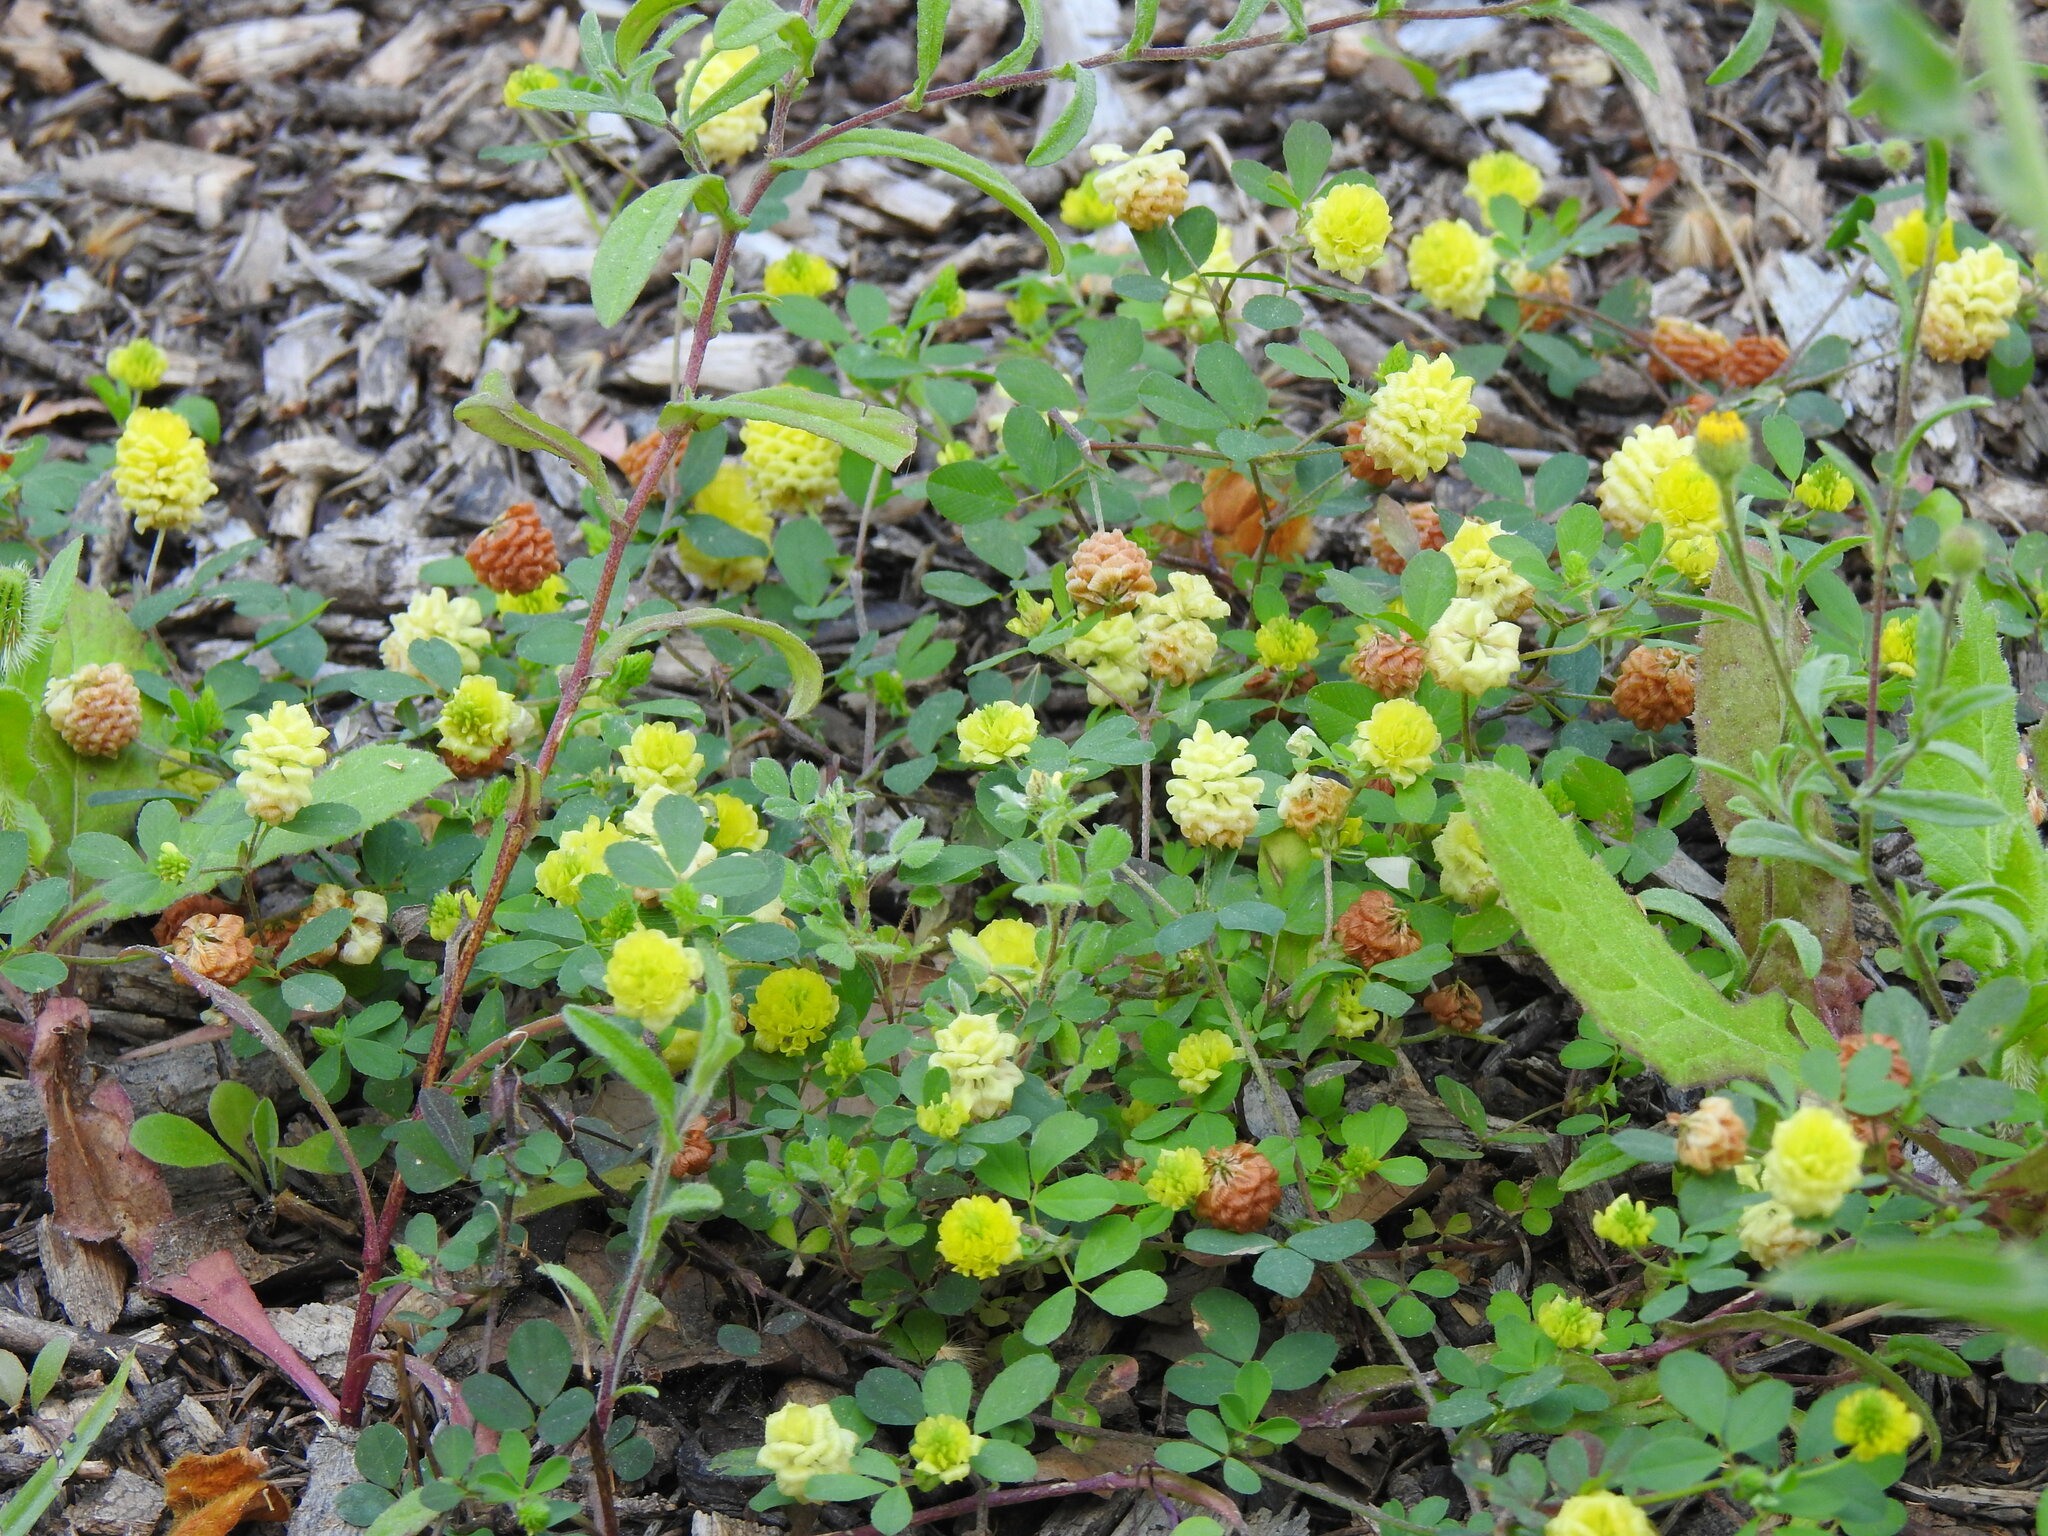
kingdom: Plantae
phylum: Tracheophyta
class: Magnoliopsida
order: Fabales
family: Fabaceae
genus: Trifolium
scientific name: Trifolium campestre
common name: Field clover
